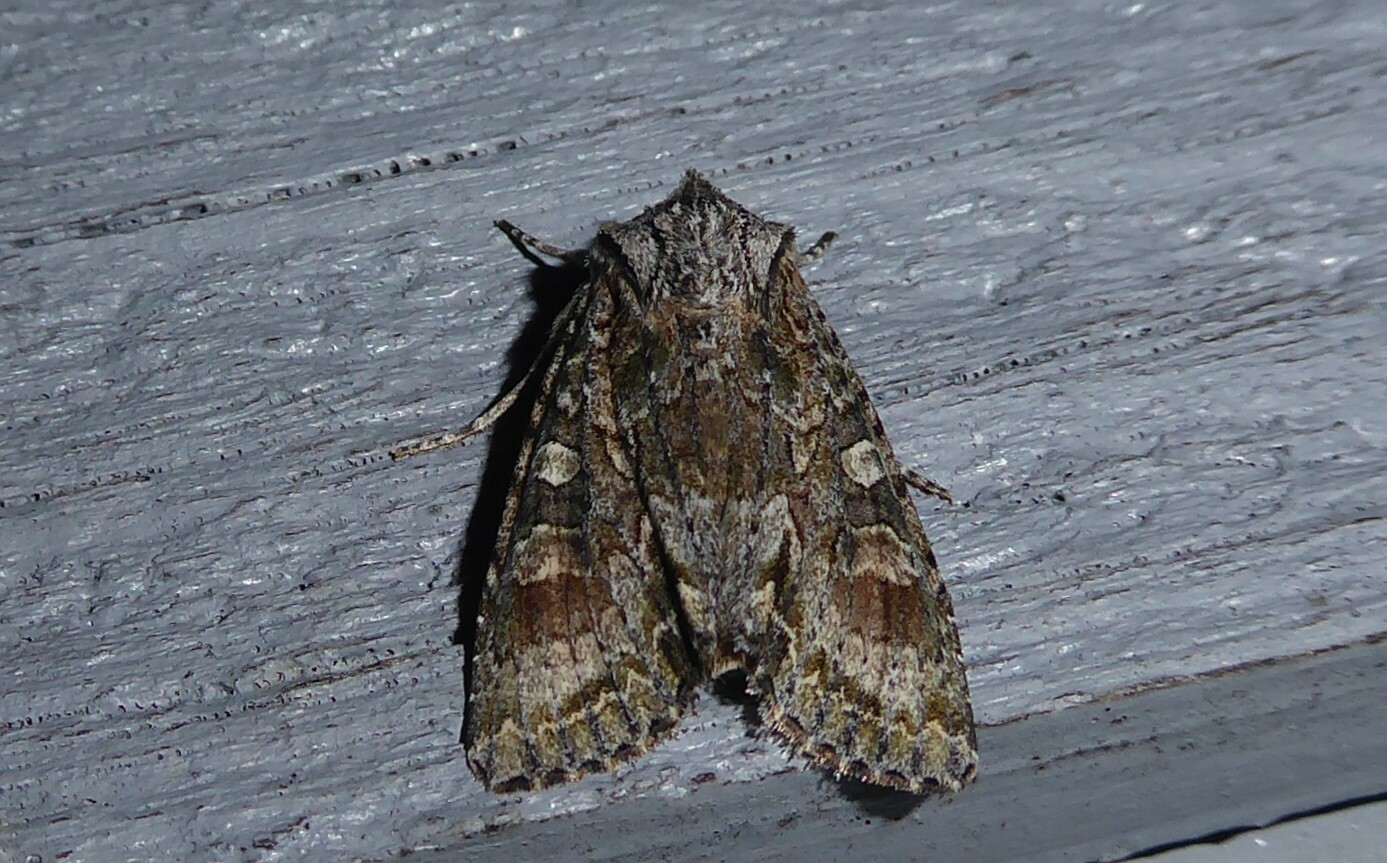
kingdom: Animalia
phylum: Arthropoda
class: Insecta
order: Lepidoptera
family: Noctuidae
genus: Ichneutica
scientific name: Ichneutica mutans
